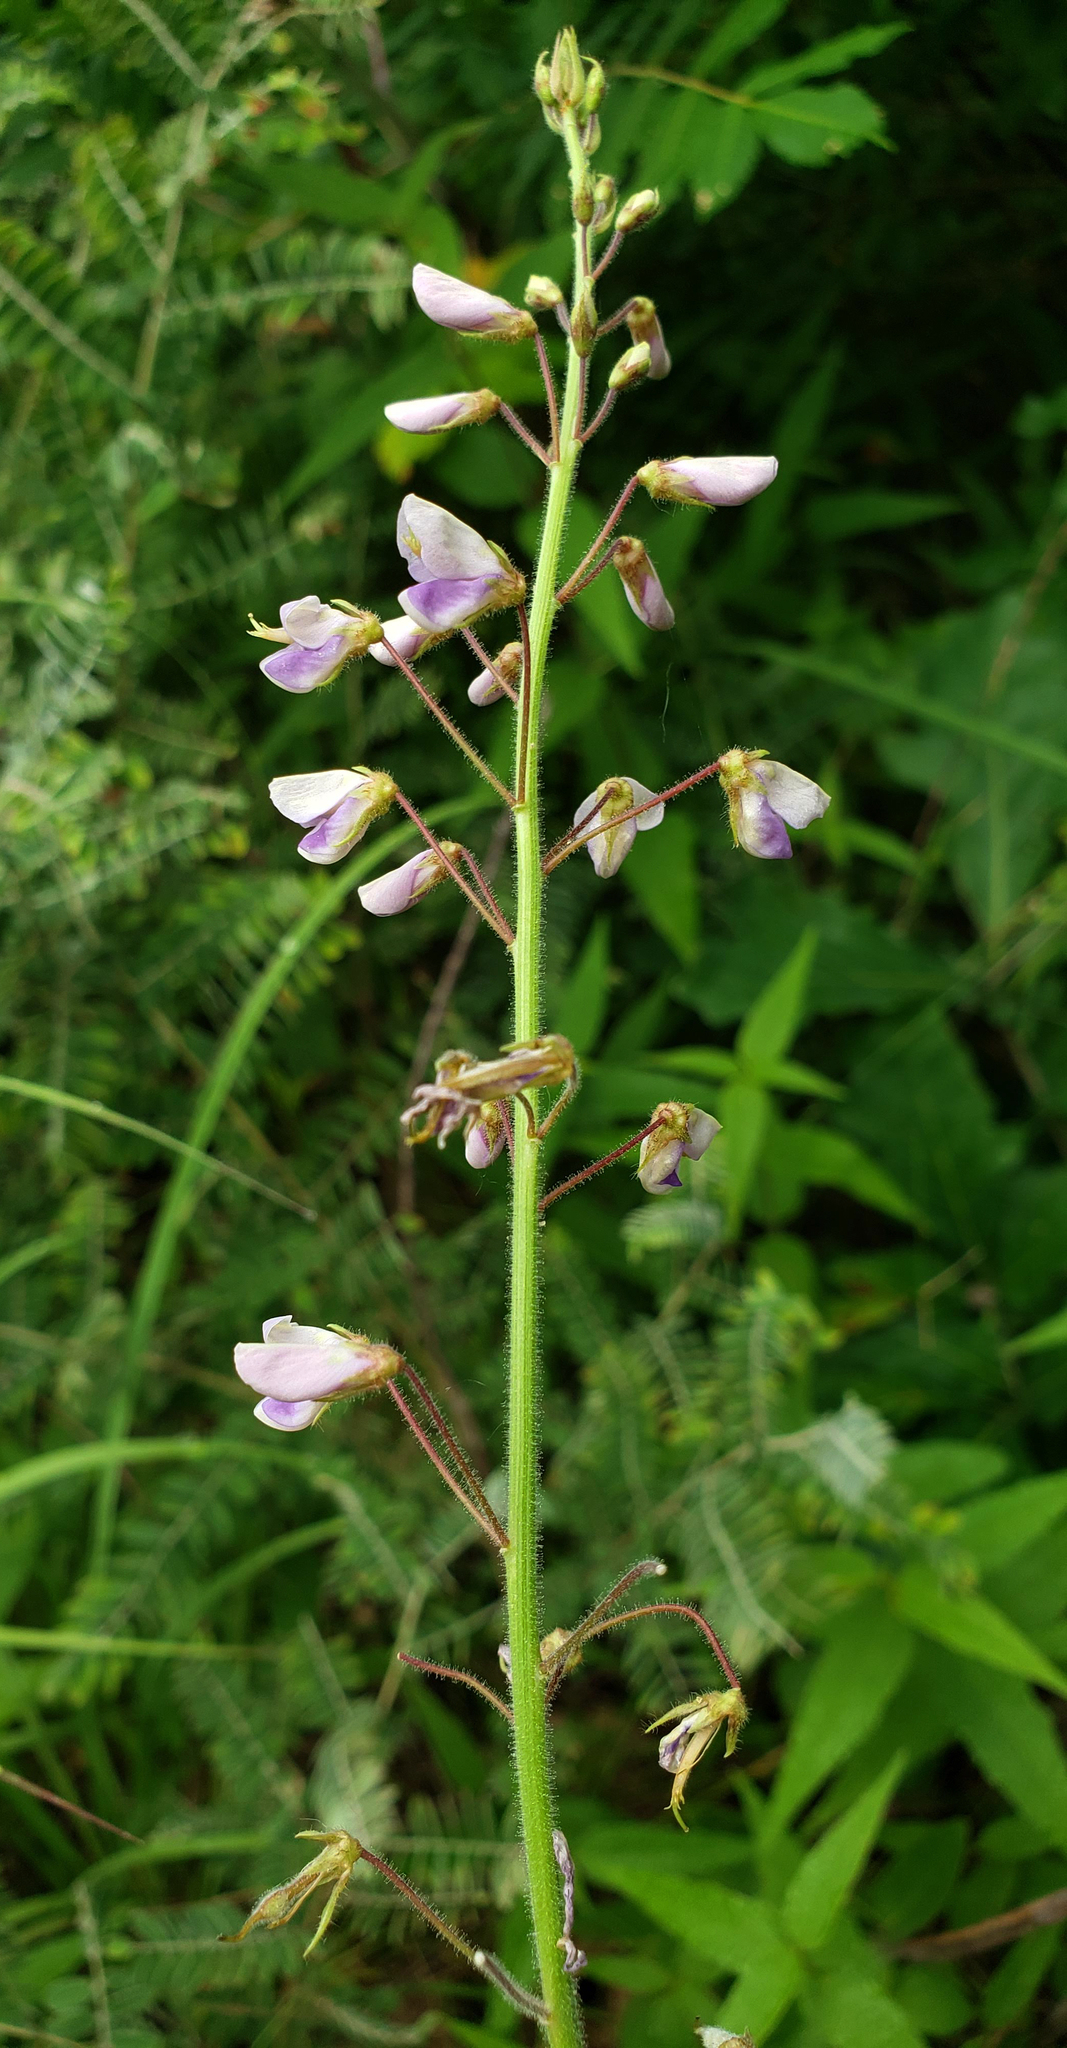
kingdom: Plantae
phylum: Tracheophyta
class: Magnoliopsida
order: Fabales
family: Fabaceae
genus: Desmodium
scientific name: Desmodium illinoense
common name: Illinois tick-clover
